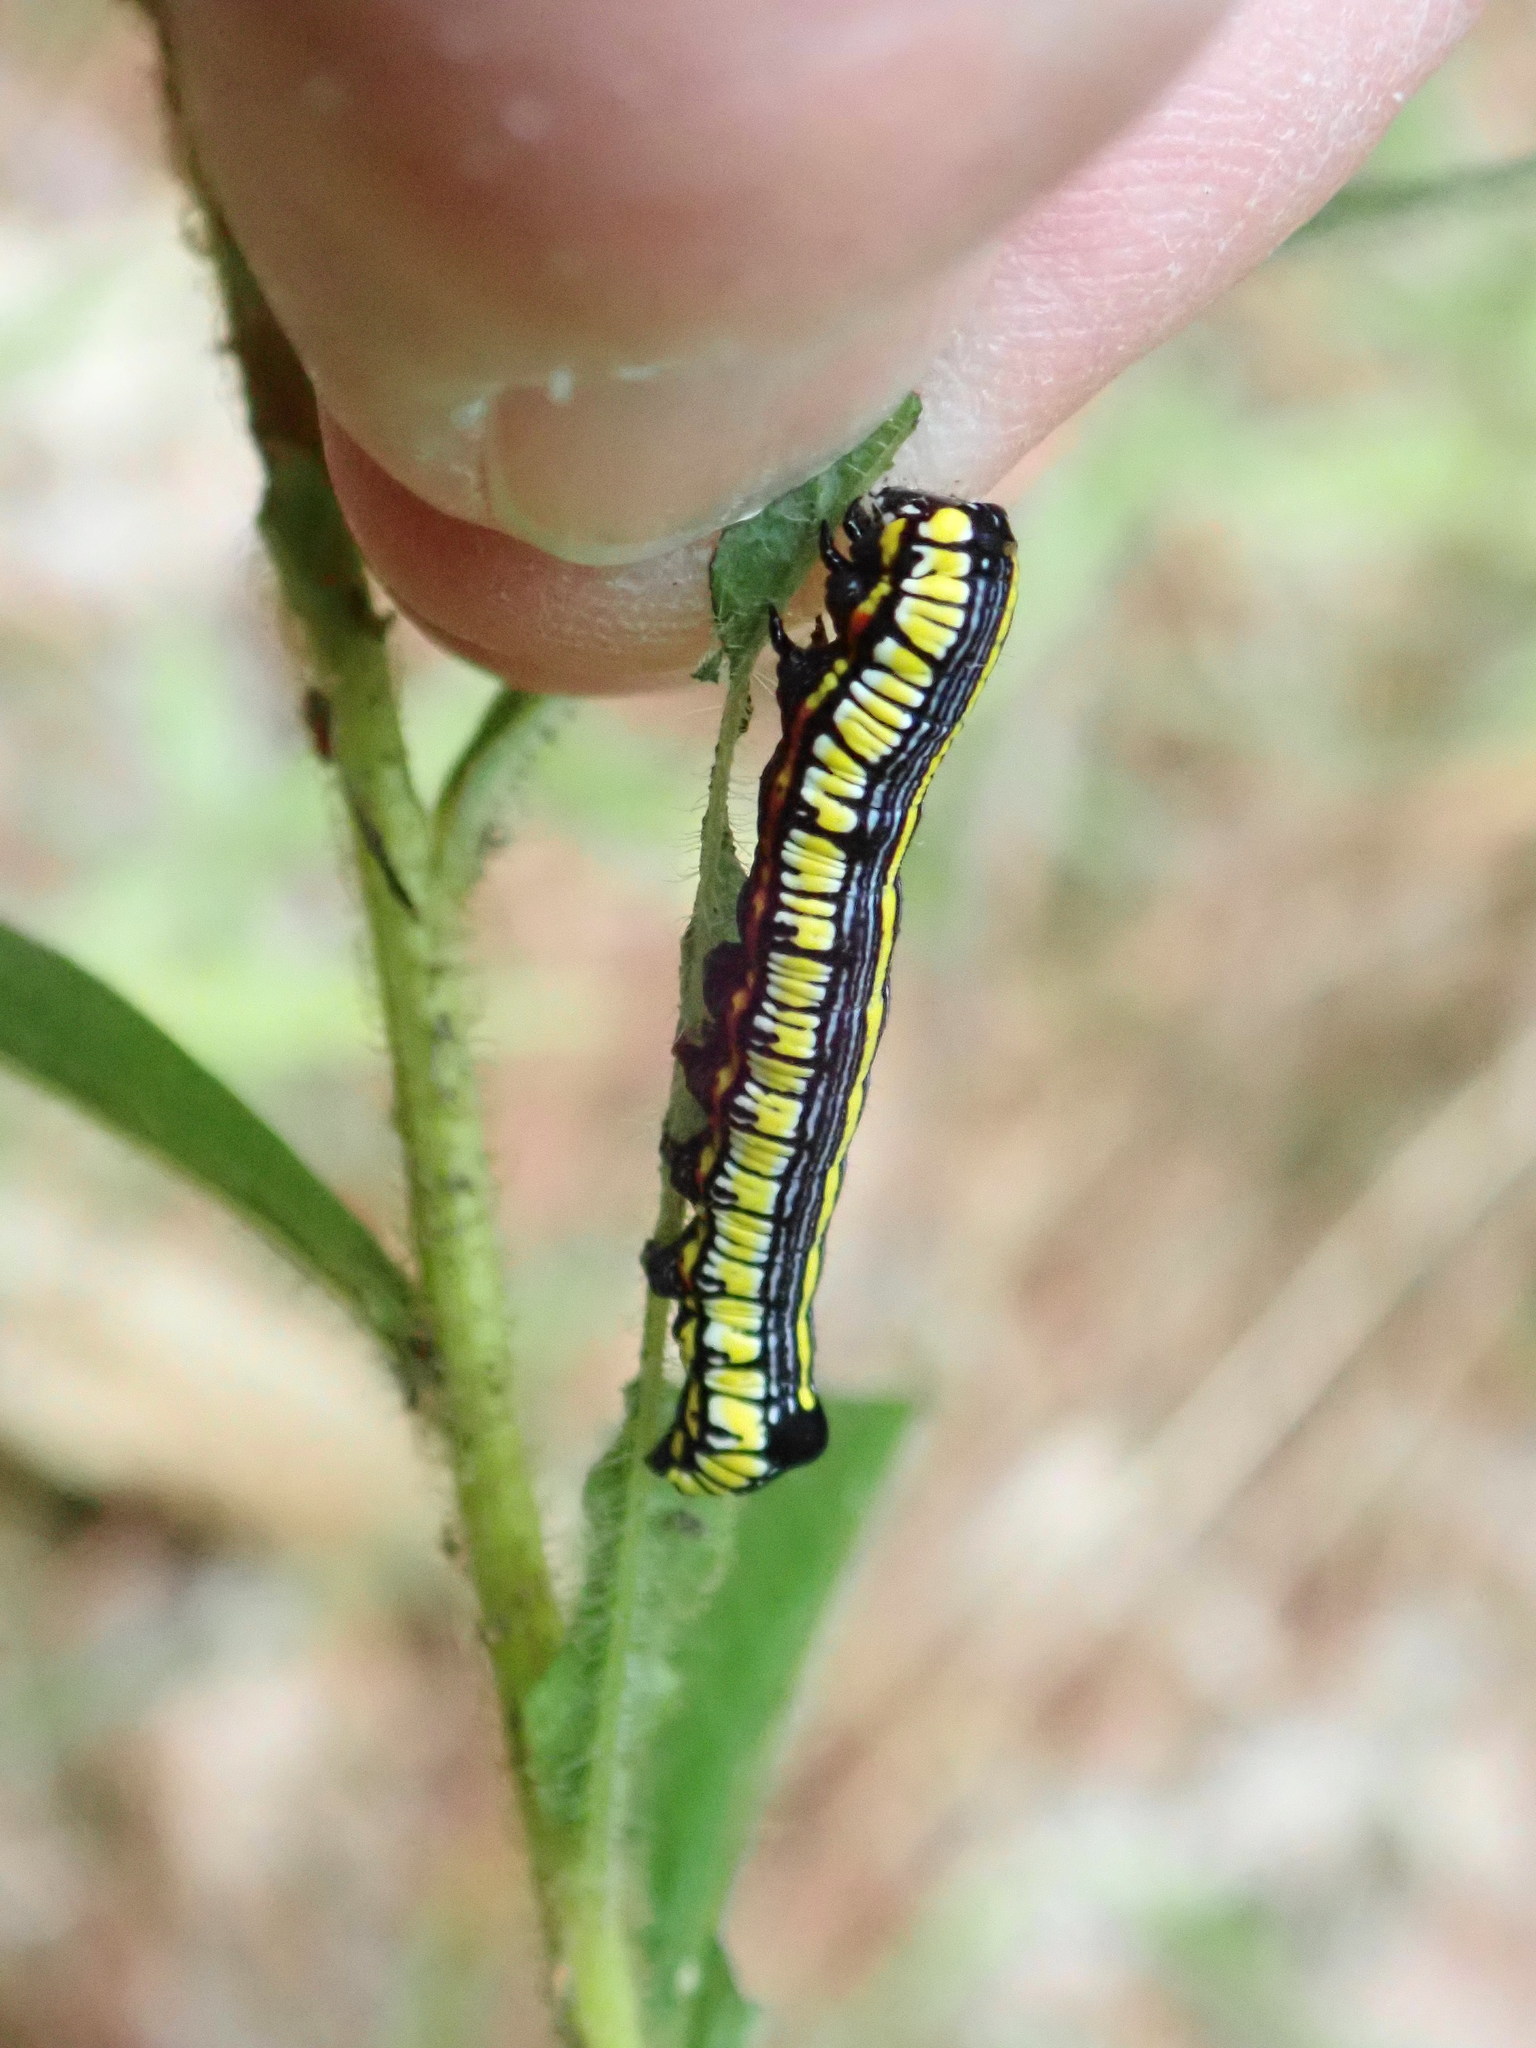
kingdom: Animalia
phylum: Arthropoda
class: Insecta
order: Lepidoptera
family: Noctuidae
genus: Cucullia
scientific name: Cucullia convexipennis
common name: Brown-hooded owlet
